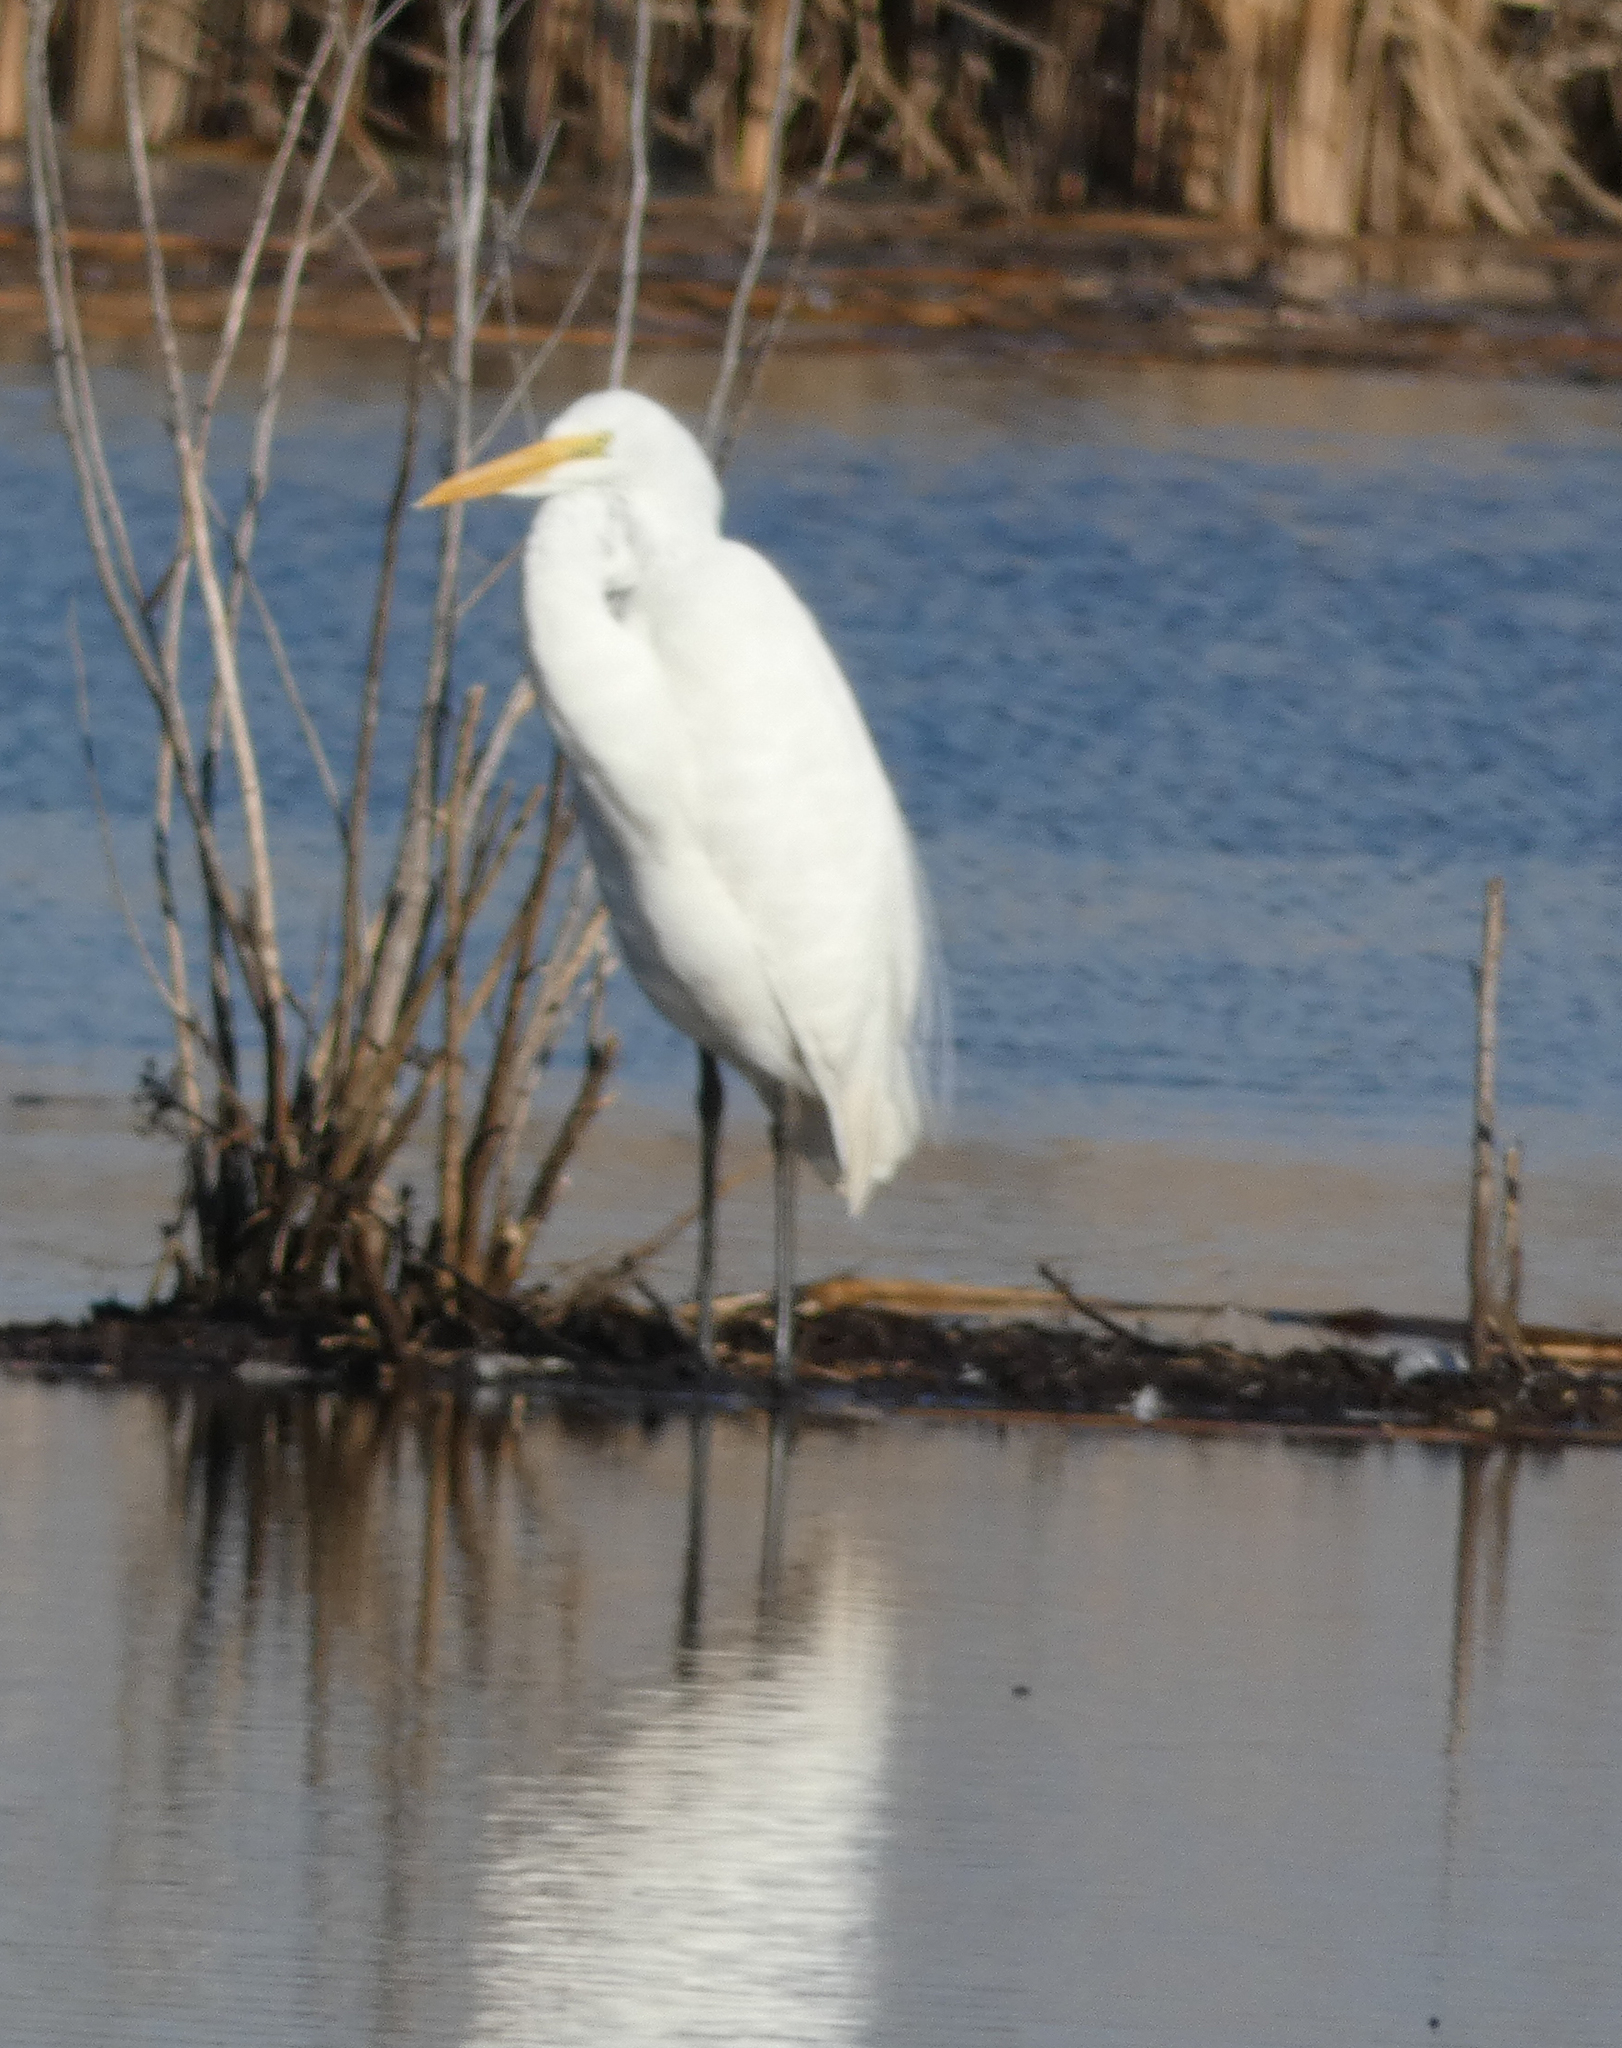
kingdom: Animalia
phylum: Chordata
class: Aves
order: Pelecaniformes
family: Ardeidae
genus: Ardea
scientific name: Ardea alba
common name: Great egret
